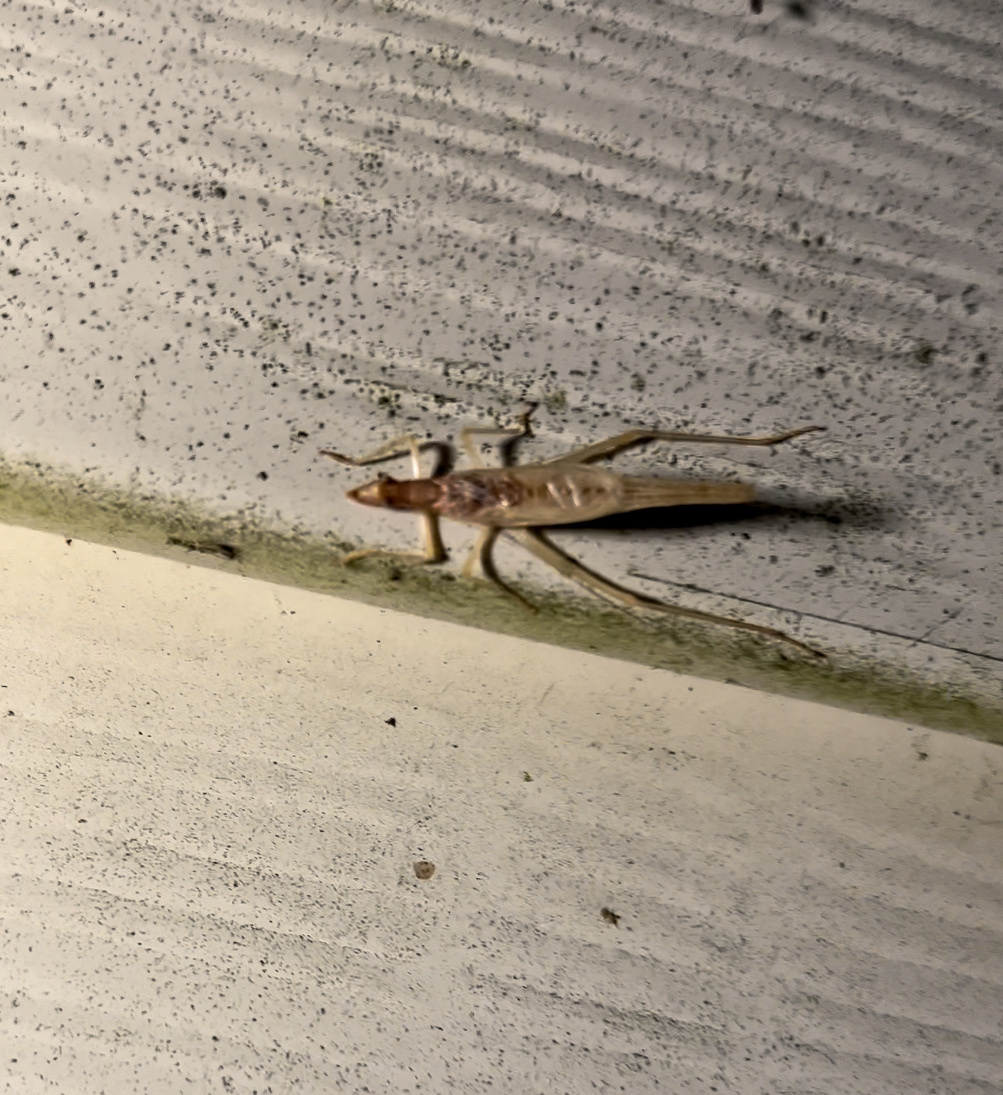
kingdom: Animalia
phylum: Arthropoda
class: Insecta
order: Orthoptera
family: Gryllidae
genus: Neoxabea
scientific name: Neoxabea bipunctata
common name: Two-spotted tree cricket
